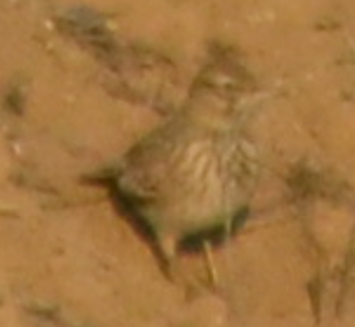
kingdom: Animalia
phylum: Chordata
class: Aves
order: Passeriformes
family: Alaudidae
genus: Galerida
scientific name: Galerida cristata
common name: Crested lark
